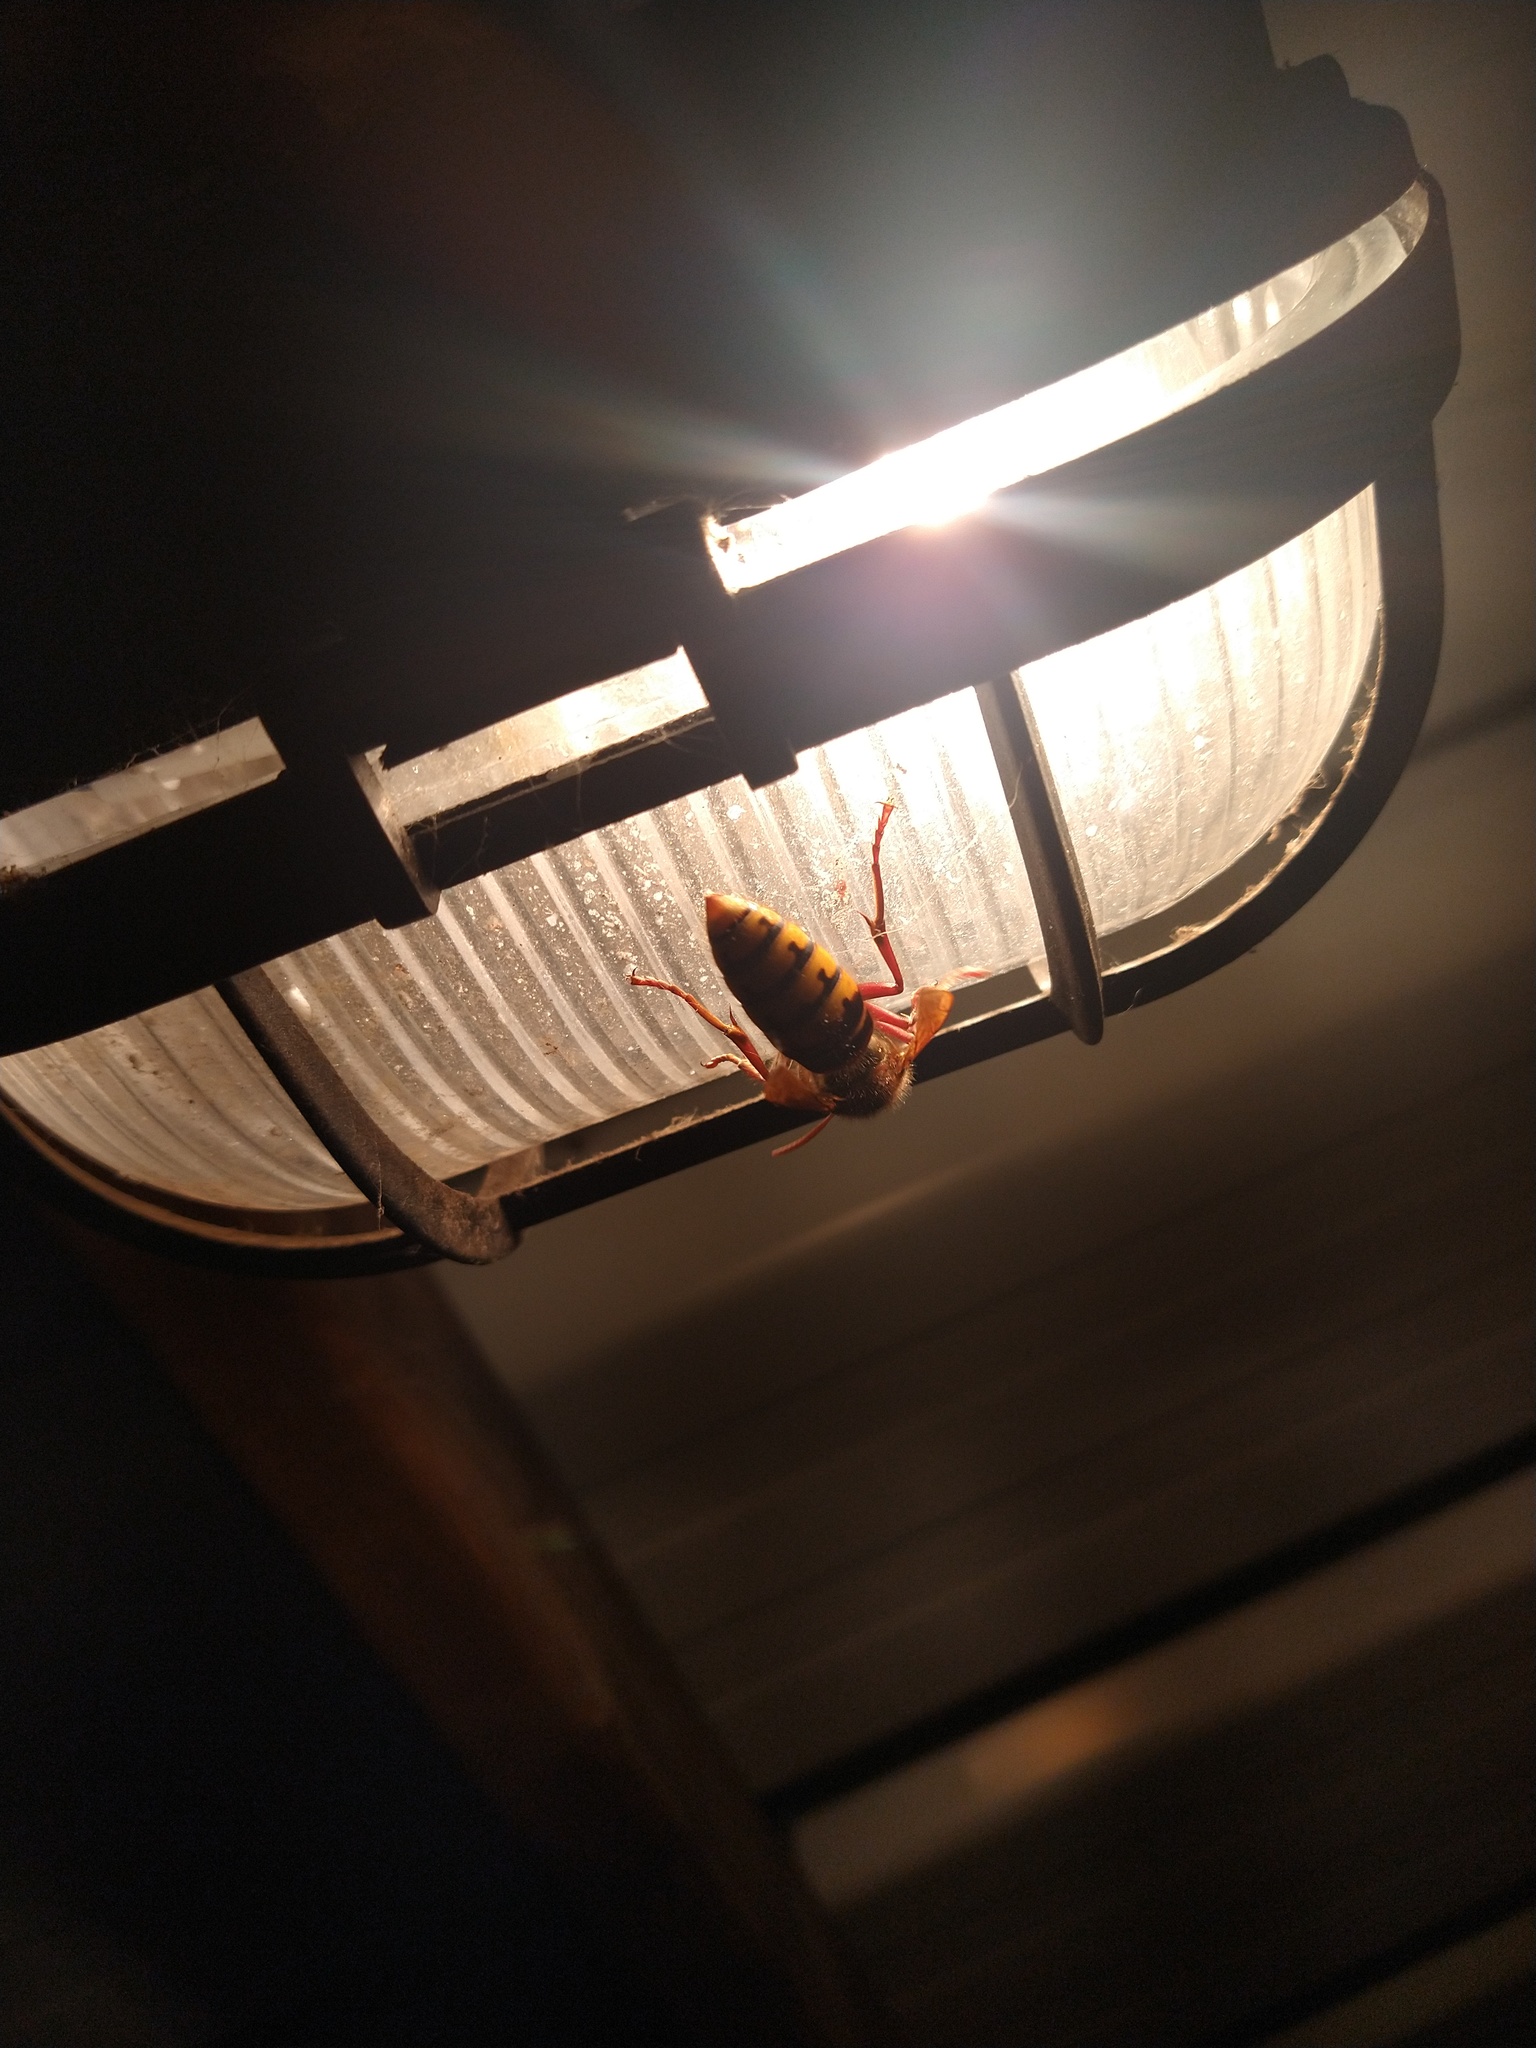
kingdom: Animalia
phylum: Arthropoda
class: Insecta
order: Hymenoptera
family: Vespidae
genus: Vespa
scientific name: Vespa crabro
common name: Hornet
